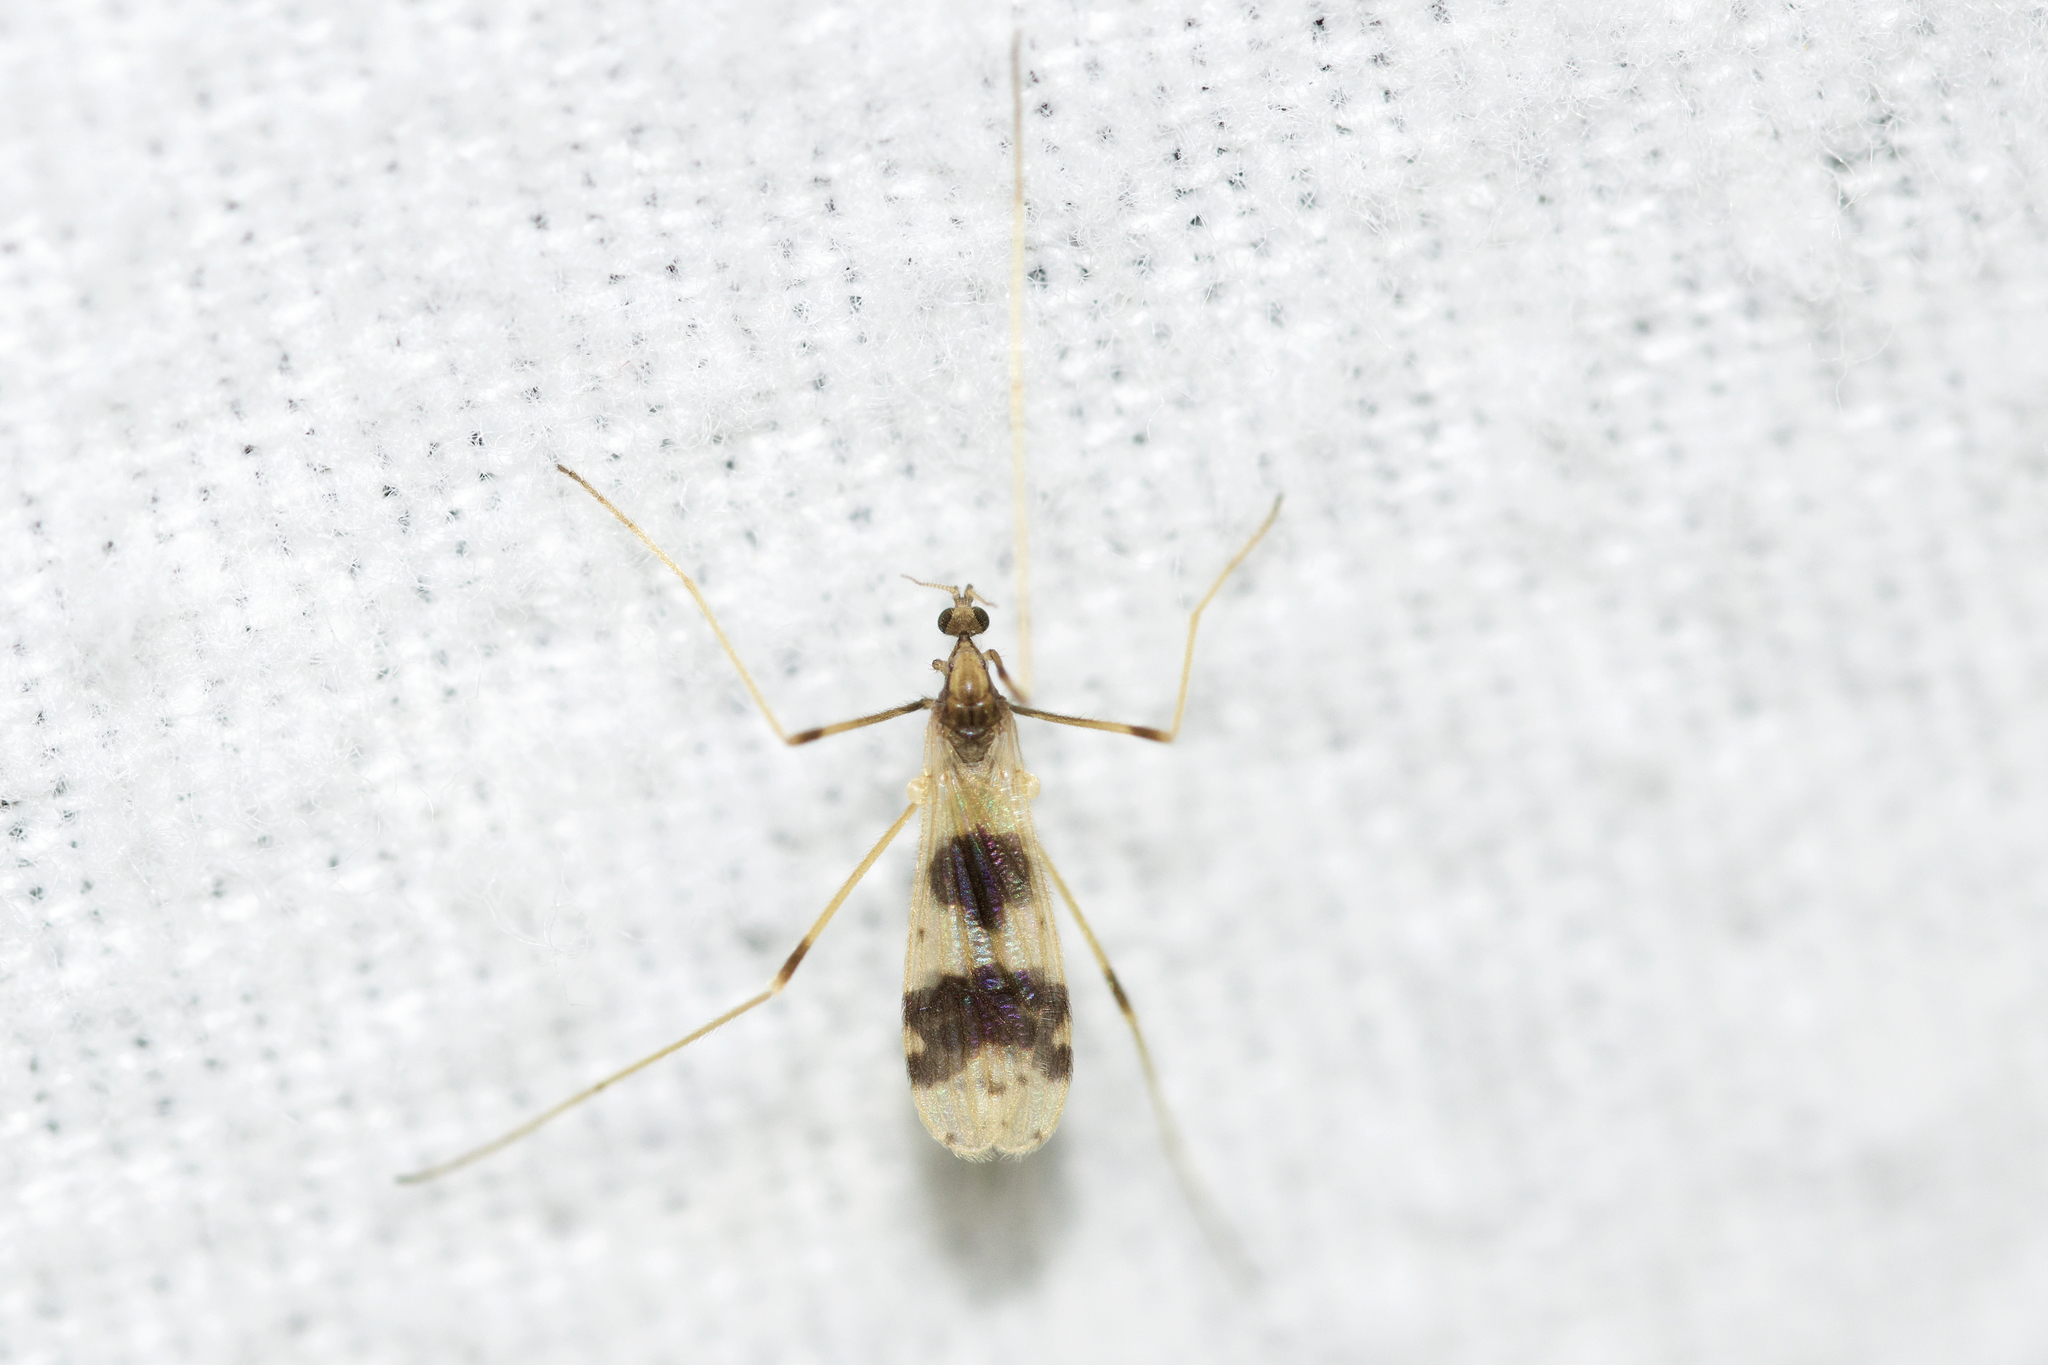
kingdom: Animalia
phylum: Arthropoda
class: Insecta
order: Diptera
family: Limoniidae
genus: Ilisia
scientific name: Ilisia venusta
